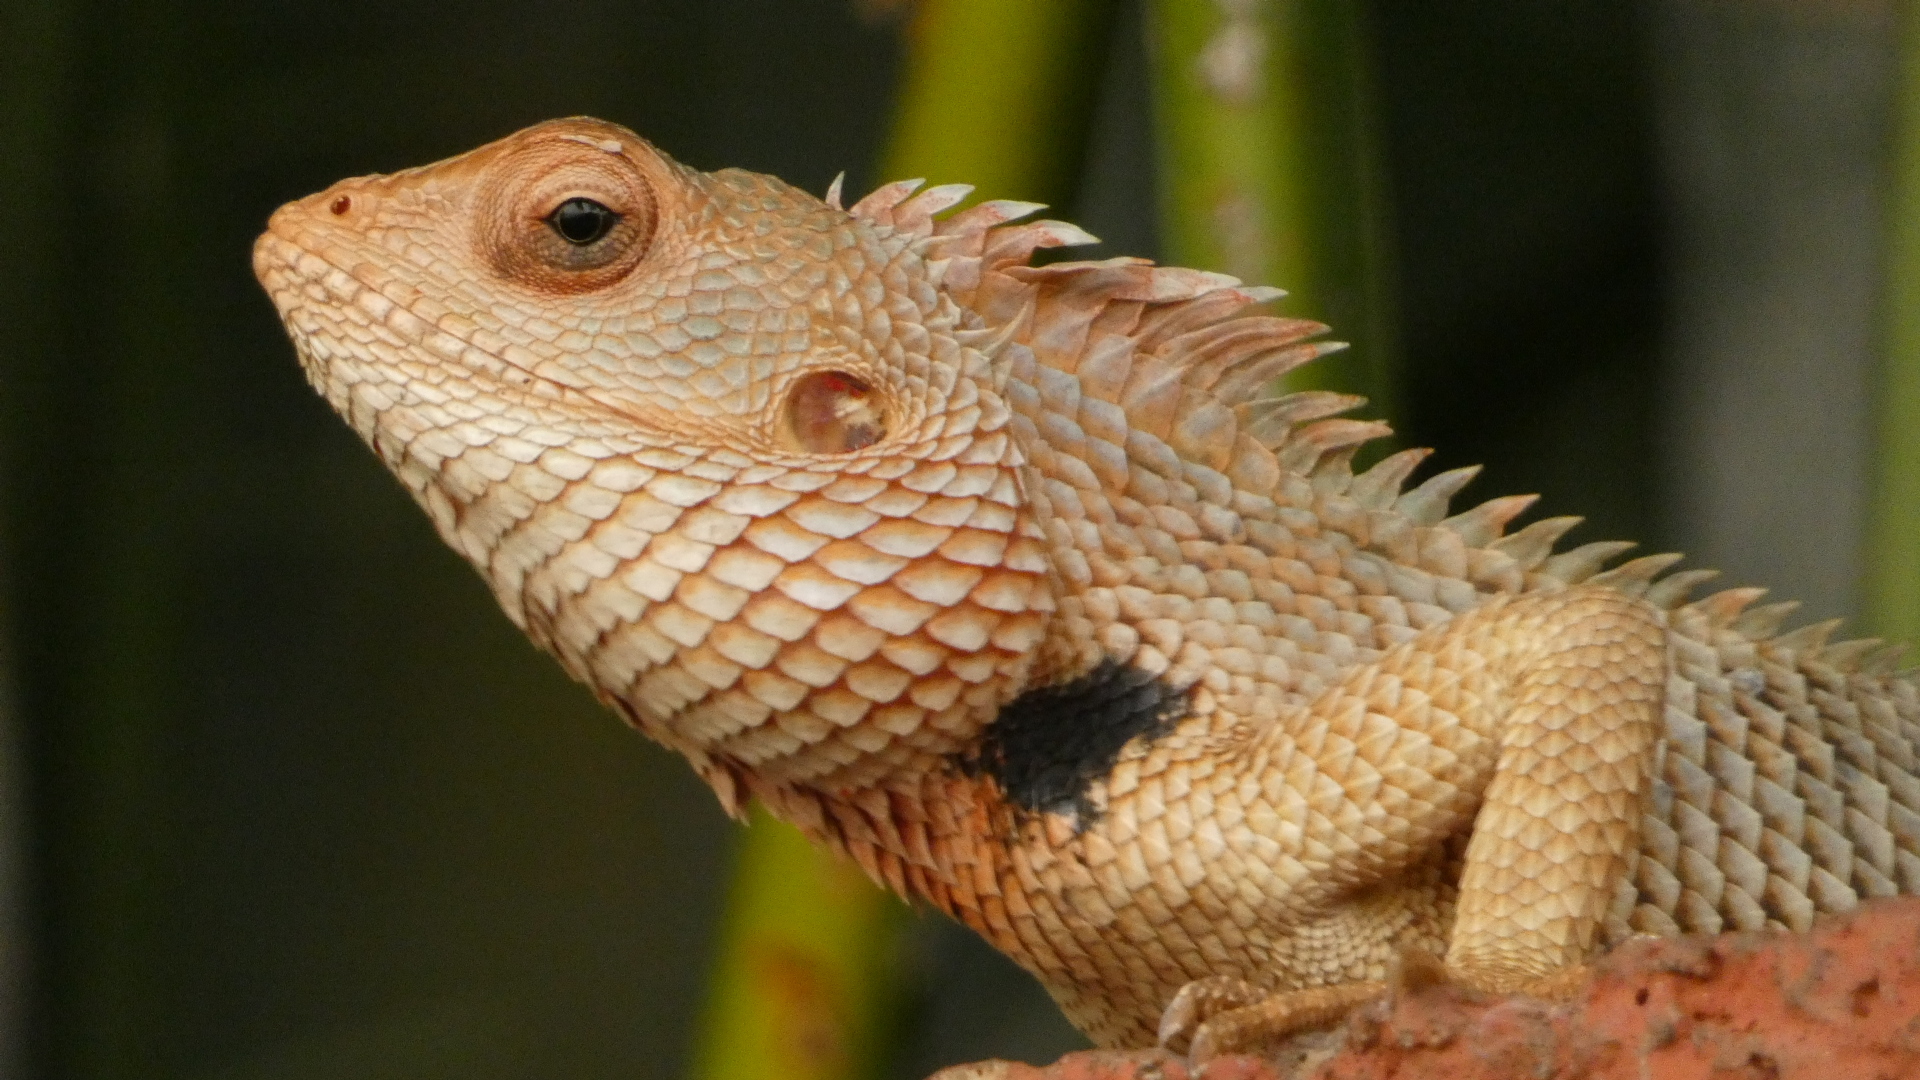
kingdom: Animalia
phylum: Chordata
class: Squamata
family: Agamidae
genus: Calotes
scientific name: Calotes versicolor
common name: Oriental garden lizard
